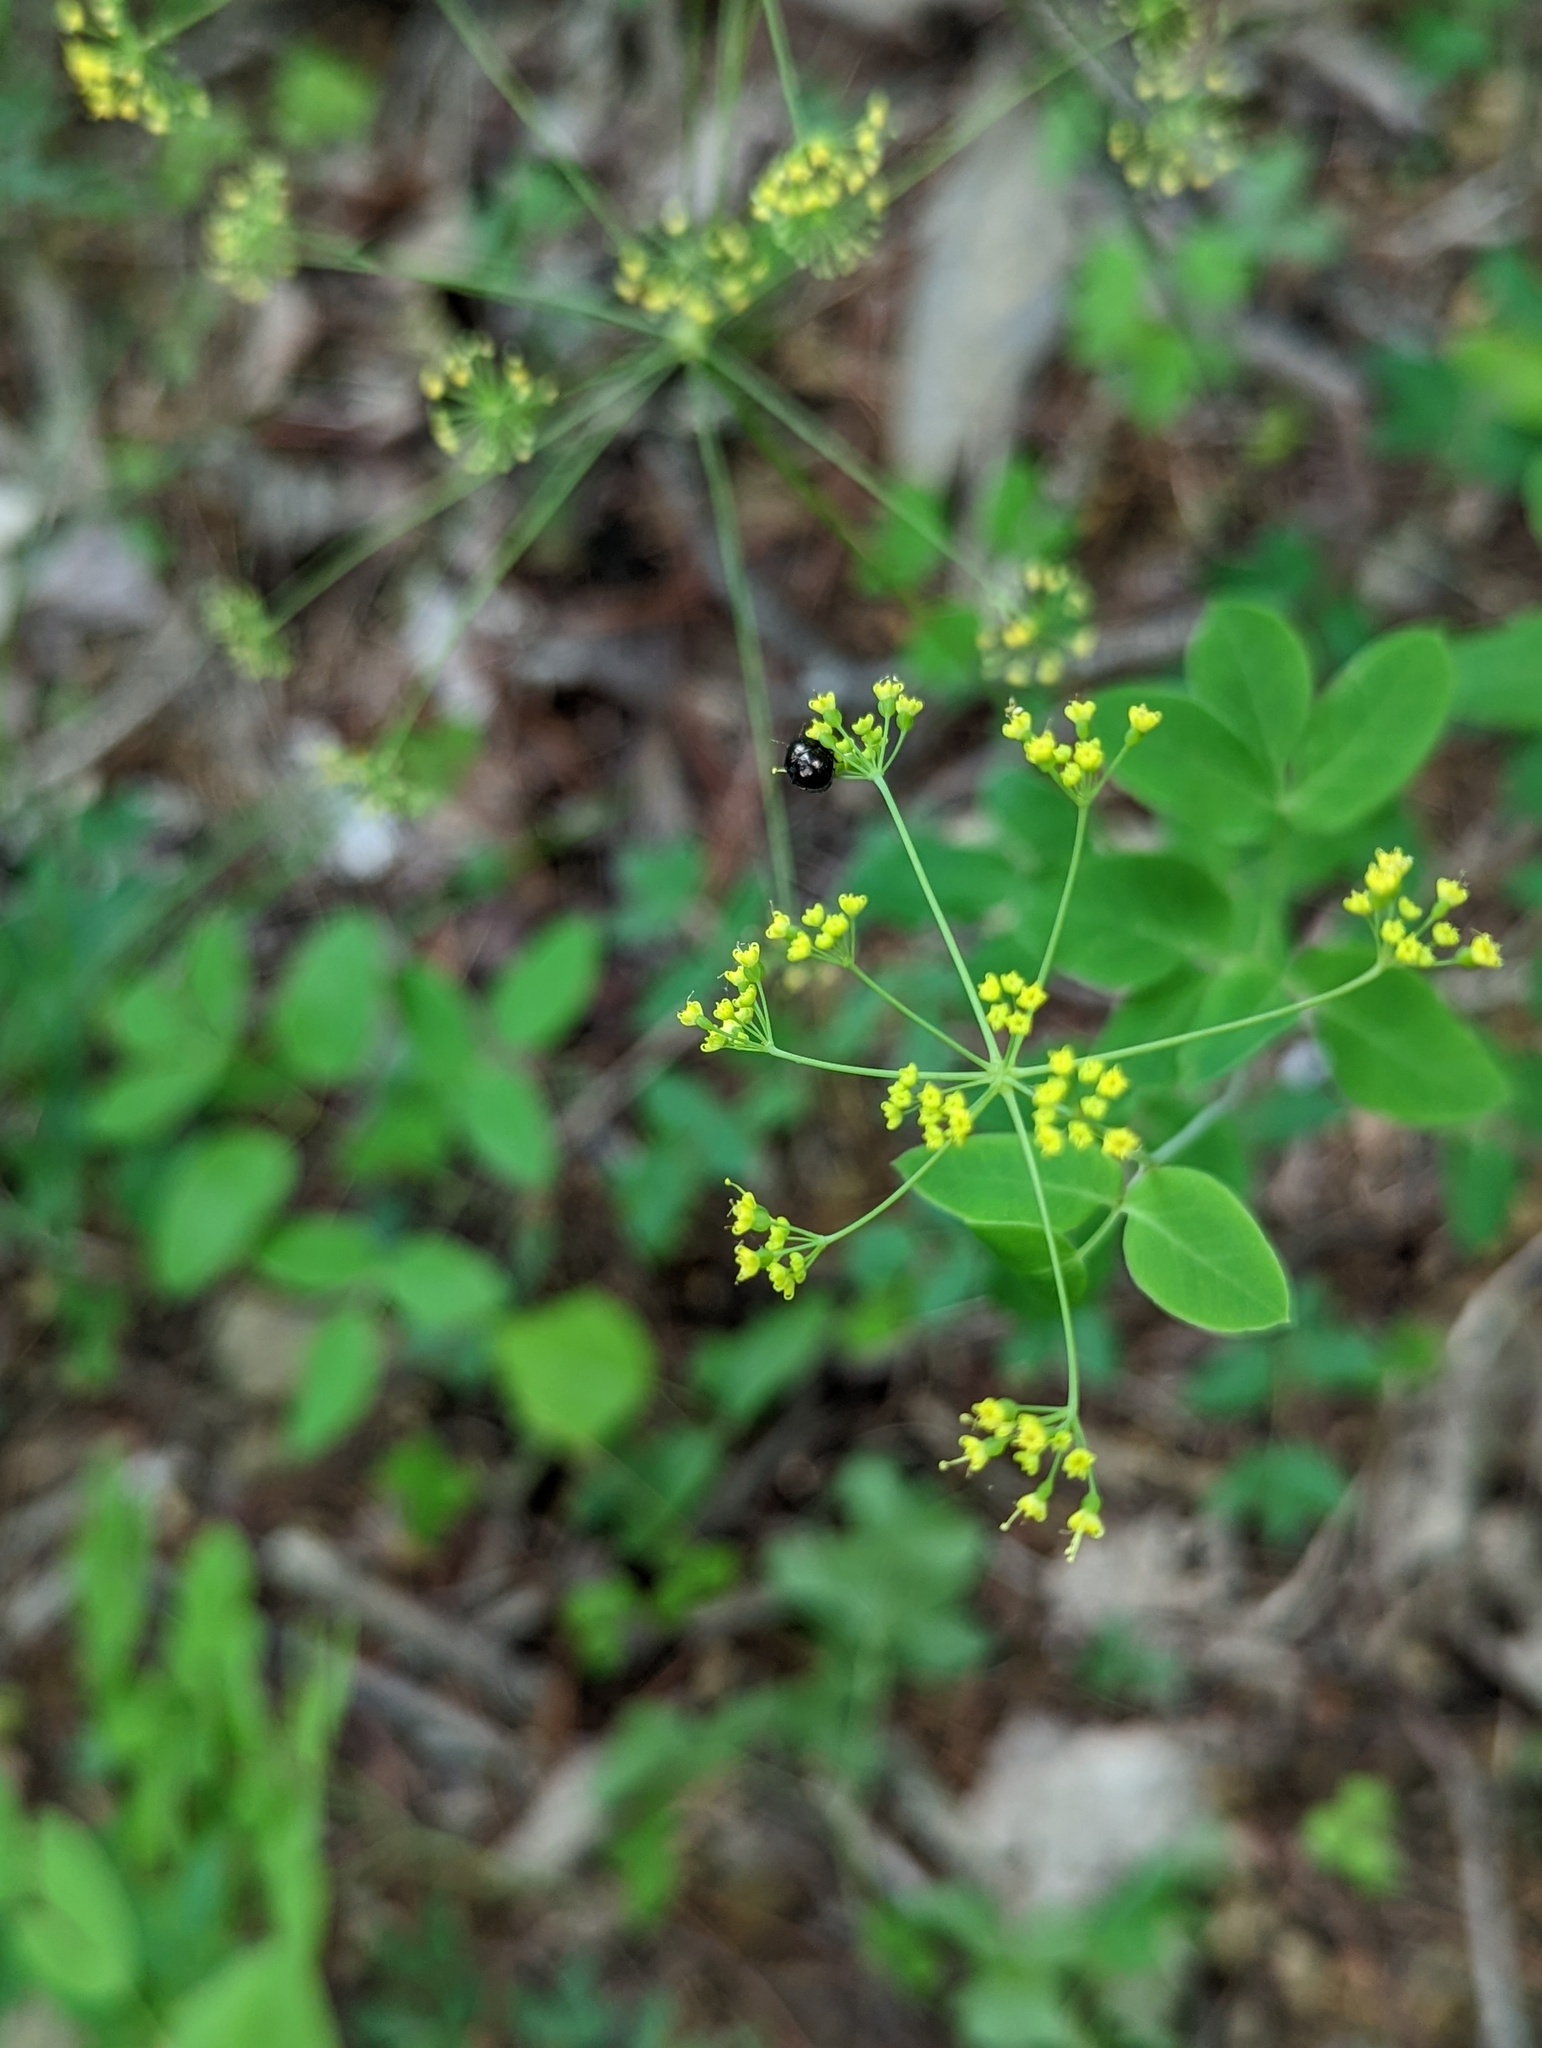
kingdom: Plantae
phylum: Tracheophyta
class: Magnoliopsida
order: Apiales
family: Apiaceae
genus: Taenidia
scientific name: Taenidia integerrima
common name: Golden alexander
